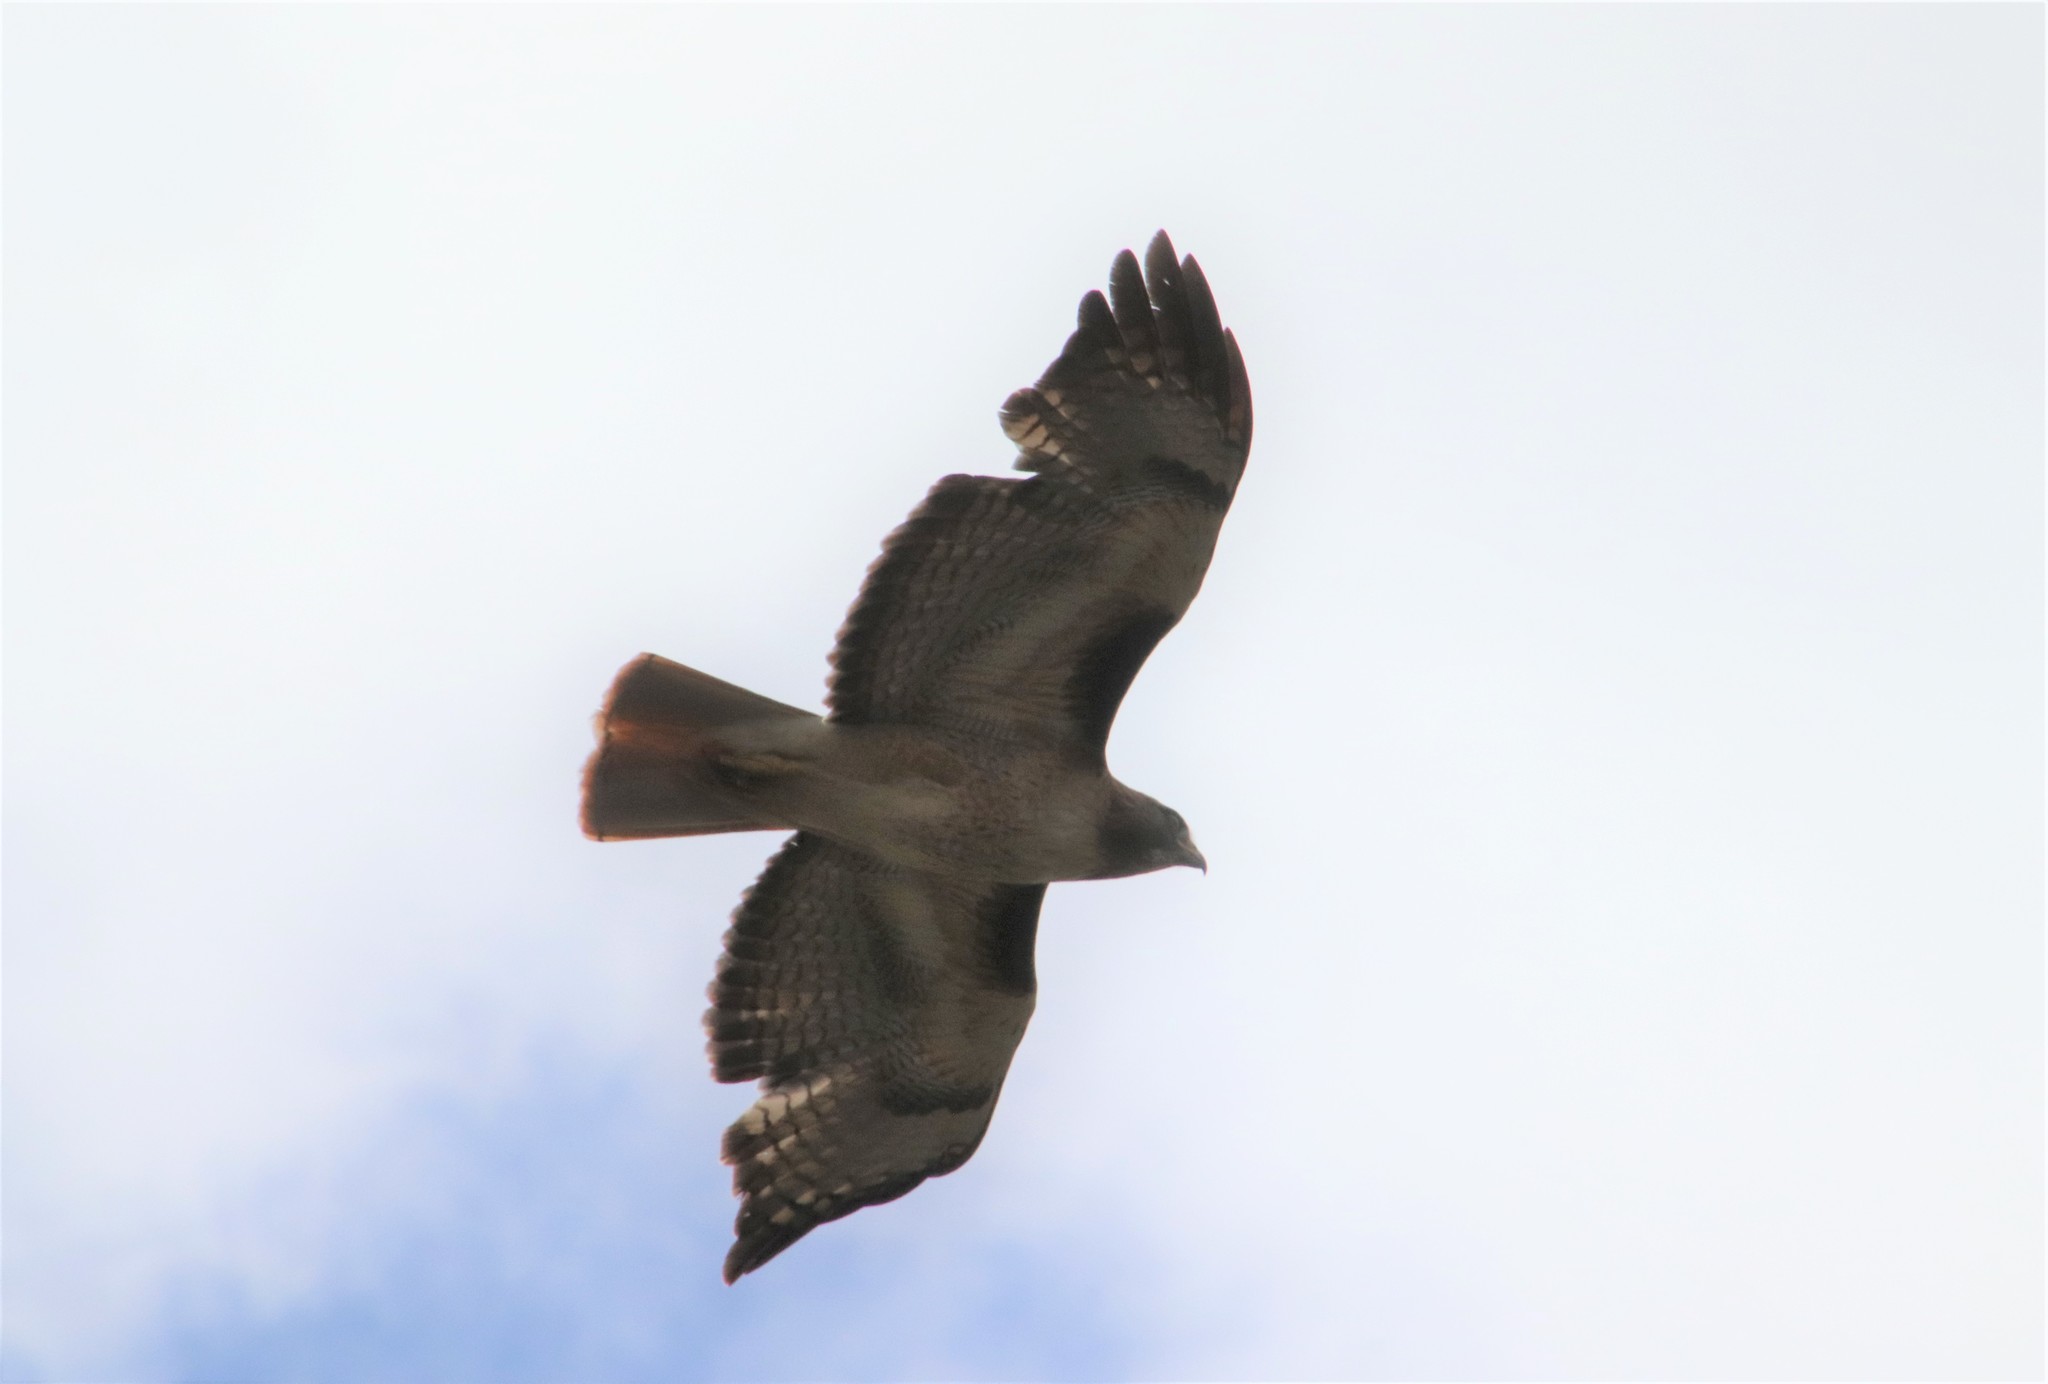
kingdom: Animalia
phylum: Chordata
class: Aves
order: Accipitriformes
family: Accipitridae
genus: Buteo
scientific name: Buteo jamaicensis
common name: Red-tailed hawk
